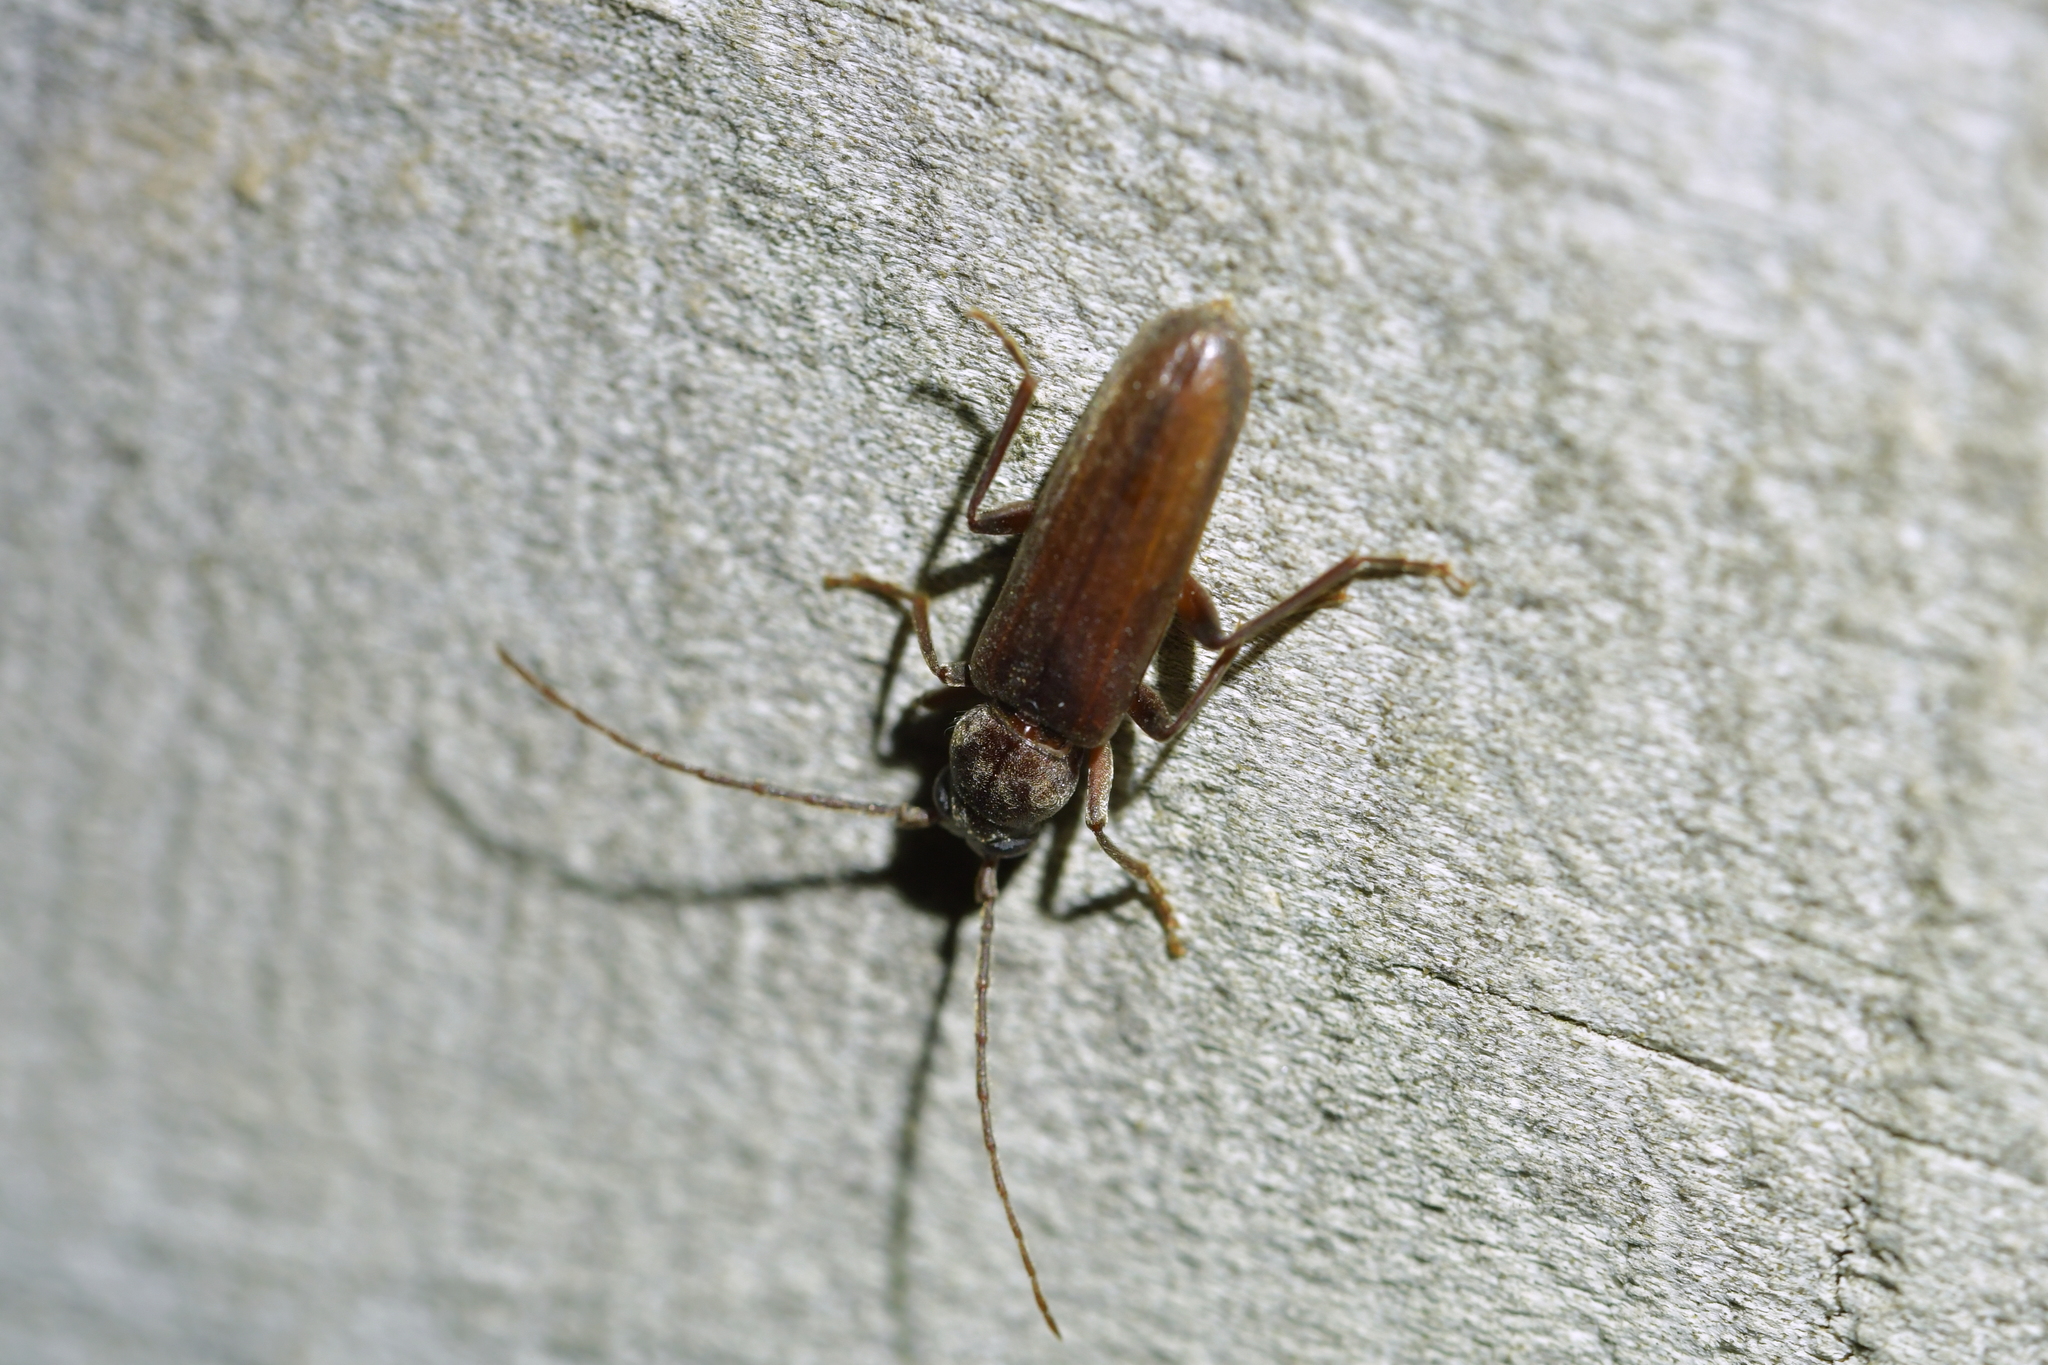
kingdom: Animalia
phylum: Arthropoda
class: Insecta
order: Coleoptera
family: Cerambycidae
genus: Arhopalus
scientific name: Arhopalus ferus
